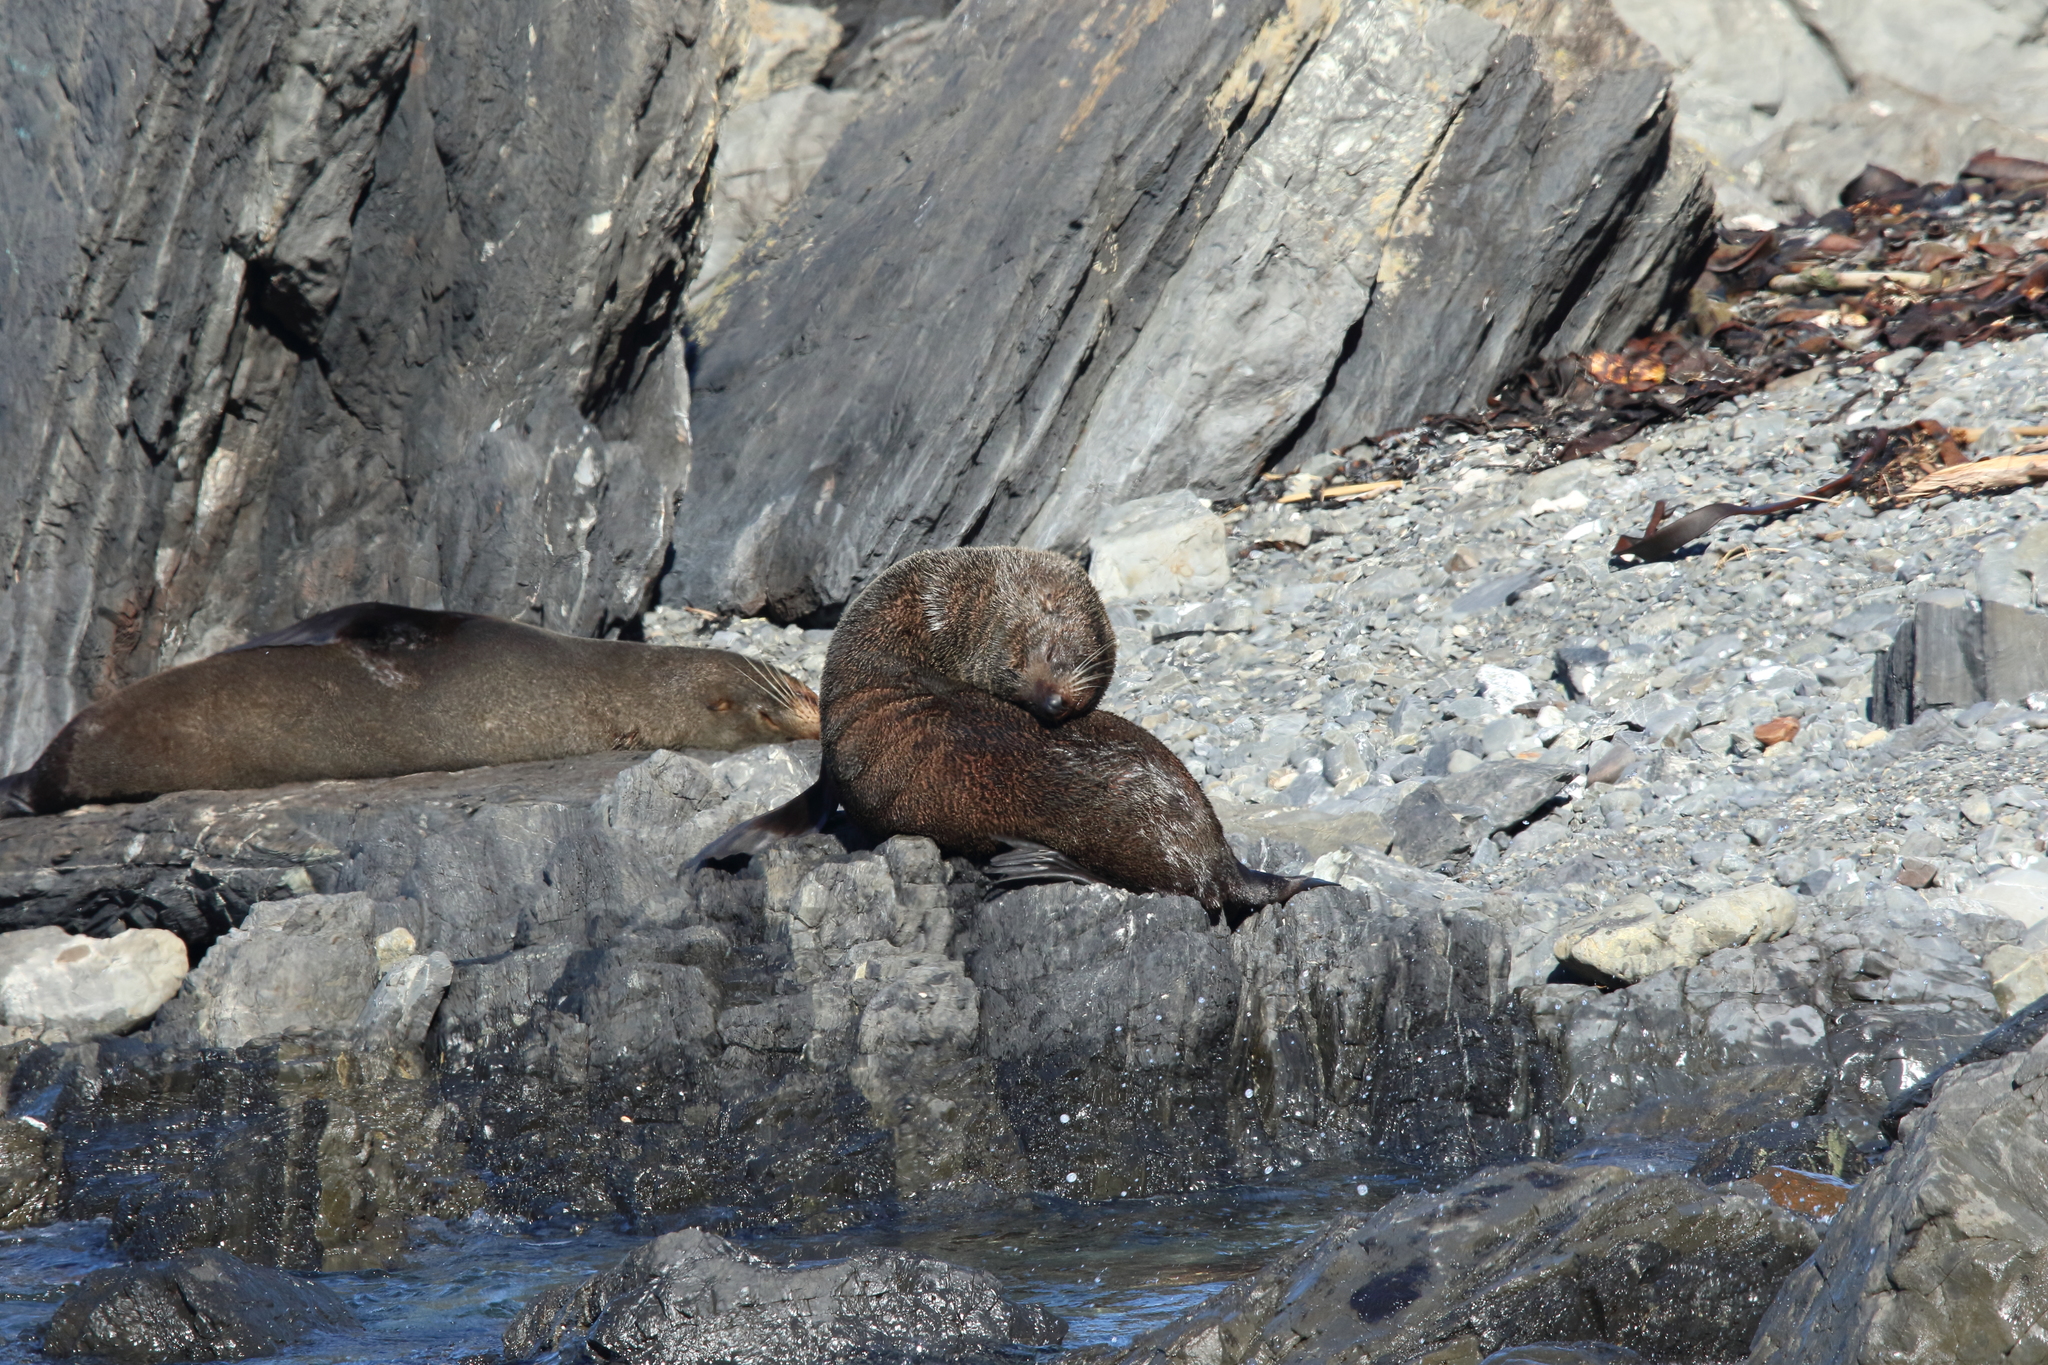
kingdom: Animalia
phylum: Chordata
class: Mammalia
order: Carnivora
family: Otariidae
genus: Arctocephalus
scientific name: Arctocephalus forsteri
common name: New zealand fur seal
